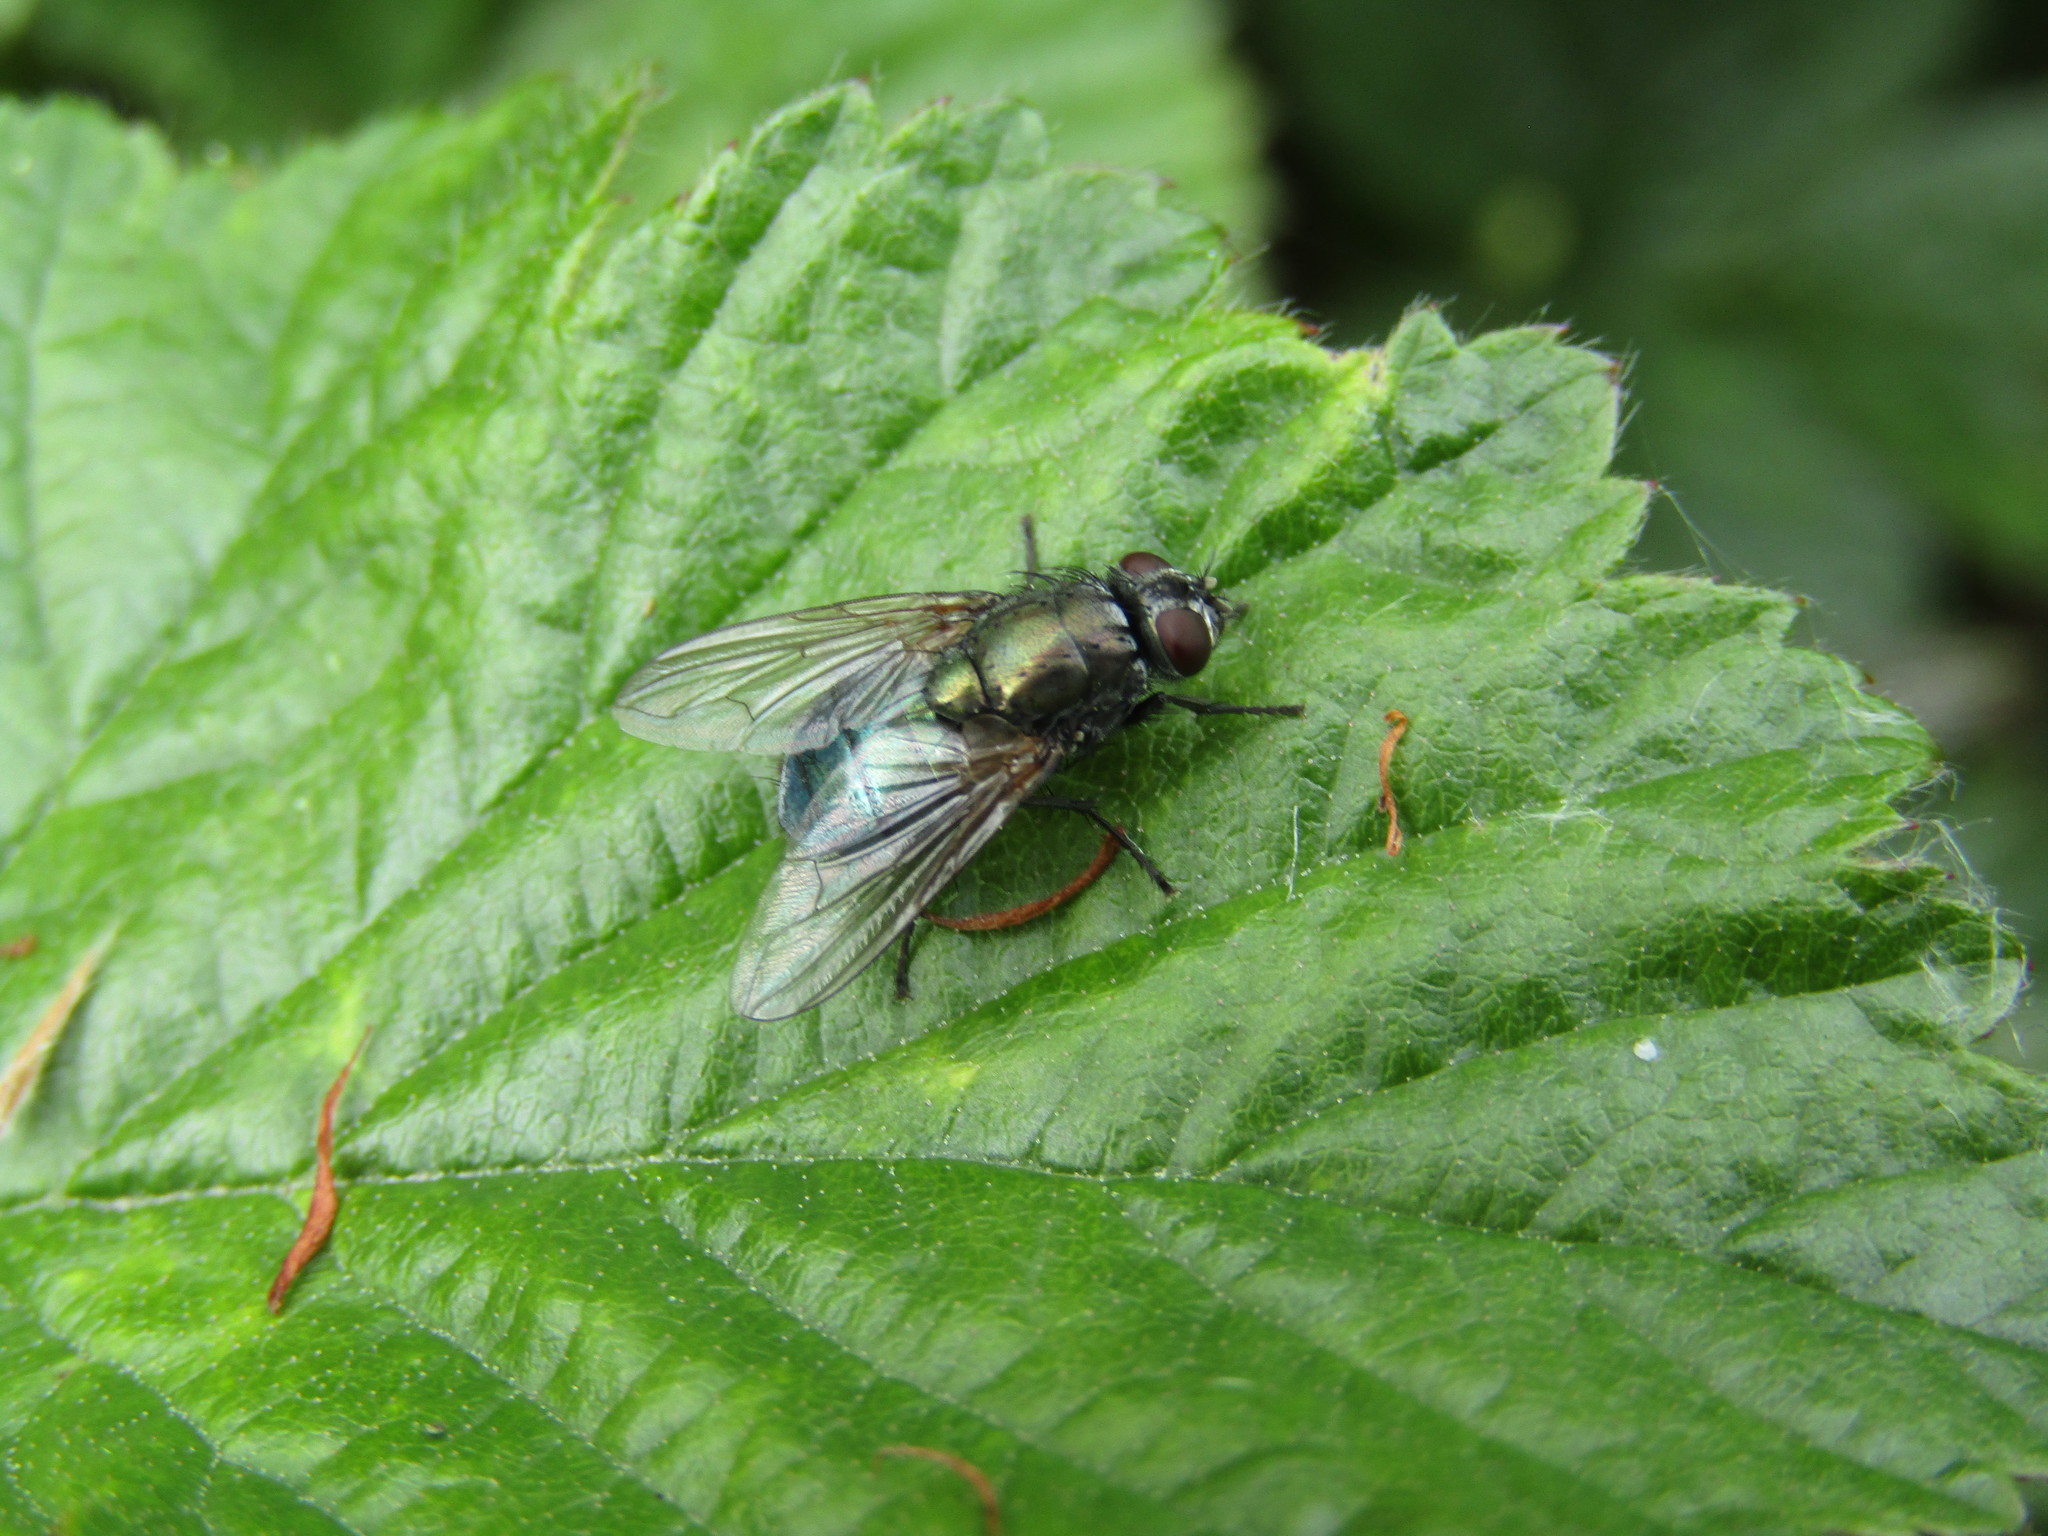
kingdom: Animalia
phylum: Arthropoda
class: Insecta
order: Diptera
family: Muscidae
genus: Dasyphora
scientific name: Dasyphora cyanella
